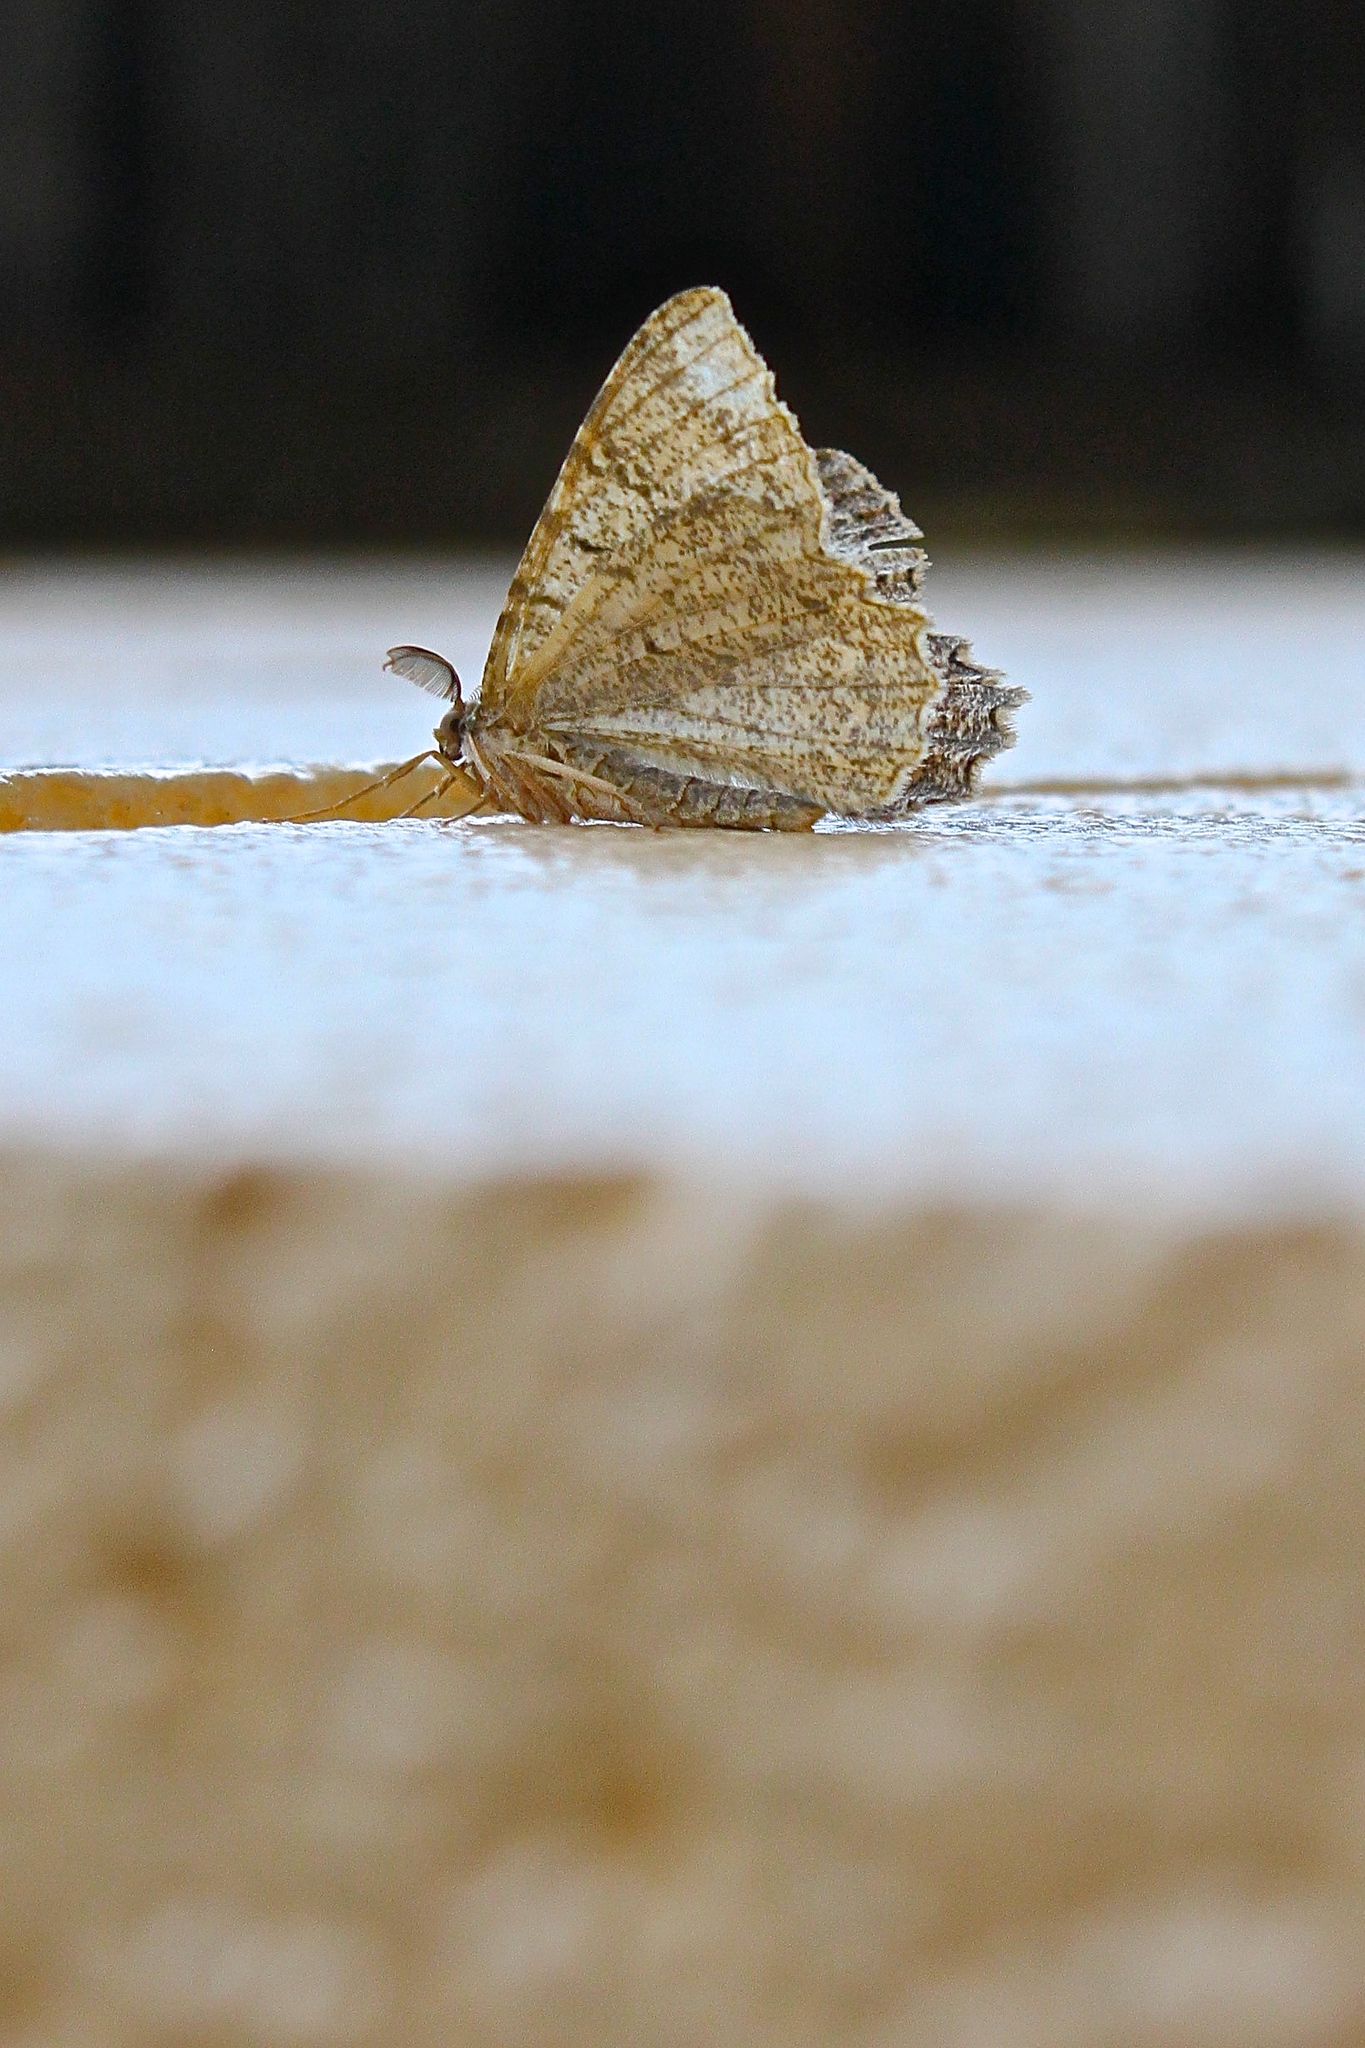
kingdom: Animalia
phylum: Arthropoda
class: Insecta
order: Lepidoptera
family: Geometridae
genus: Melanolophia
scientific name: Melanolophia canadaria
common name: Canadian melanolophia
